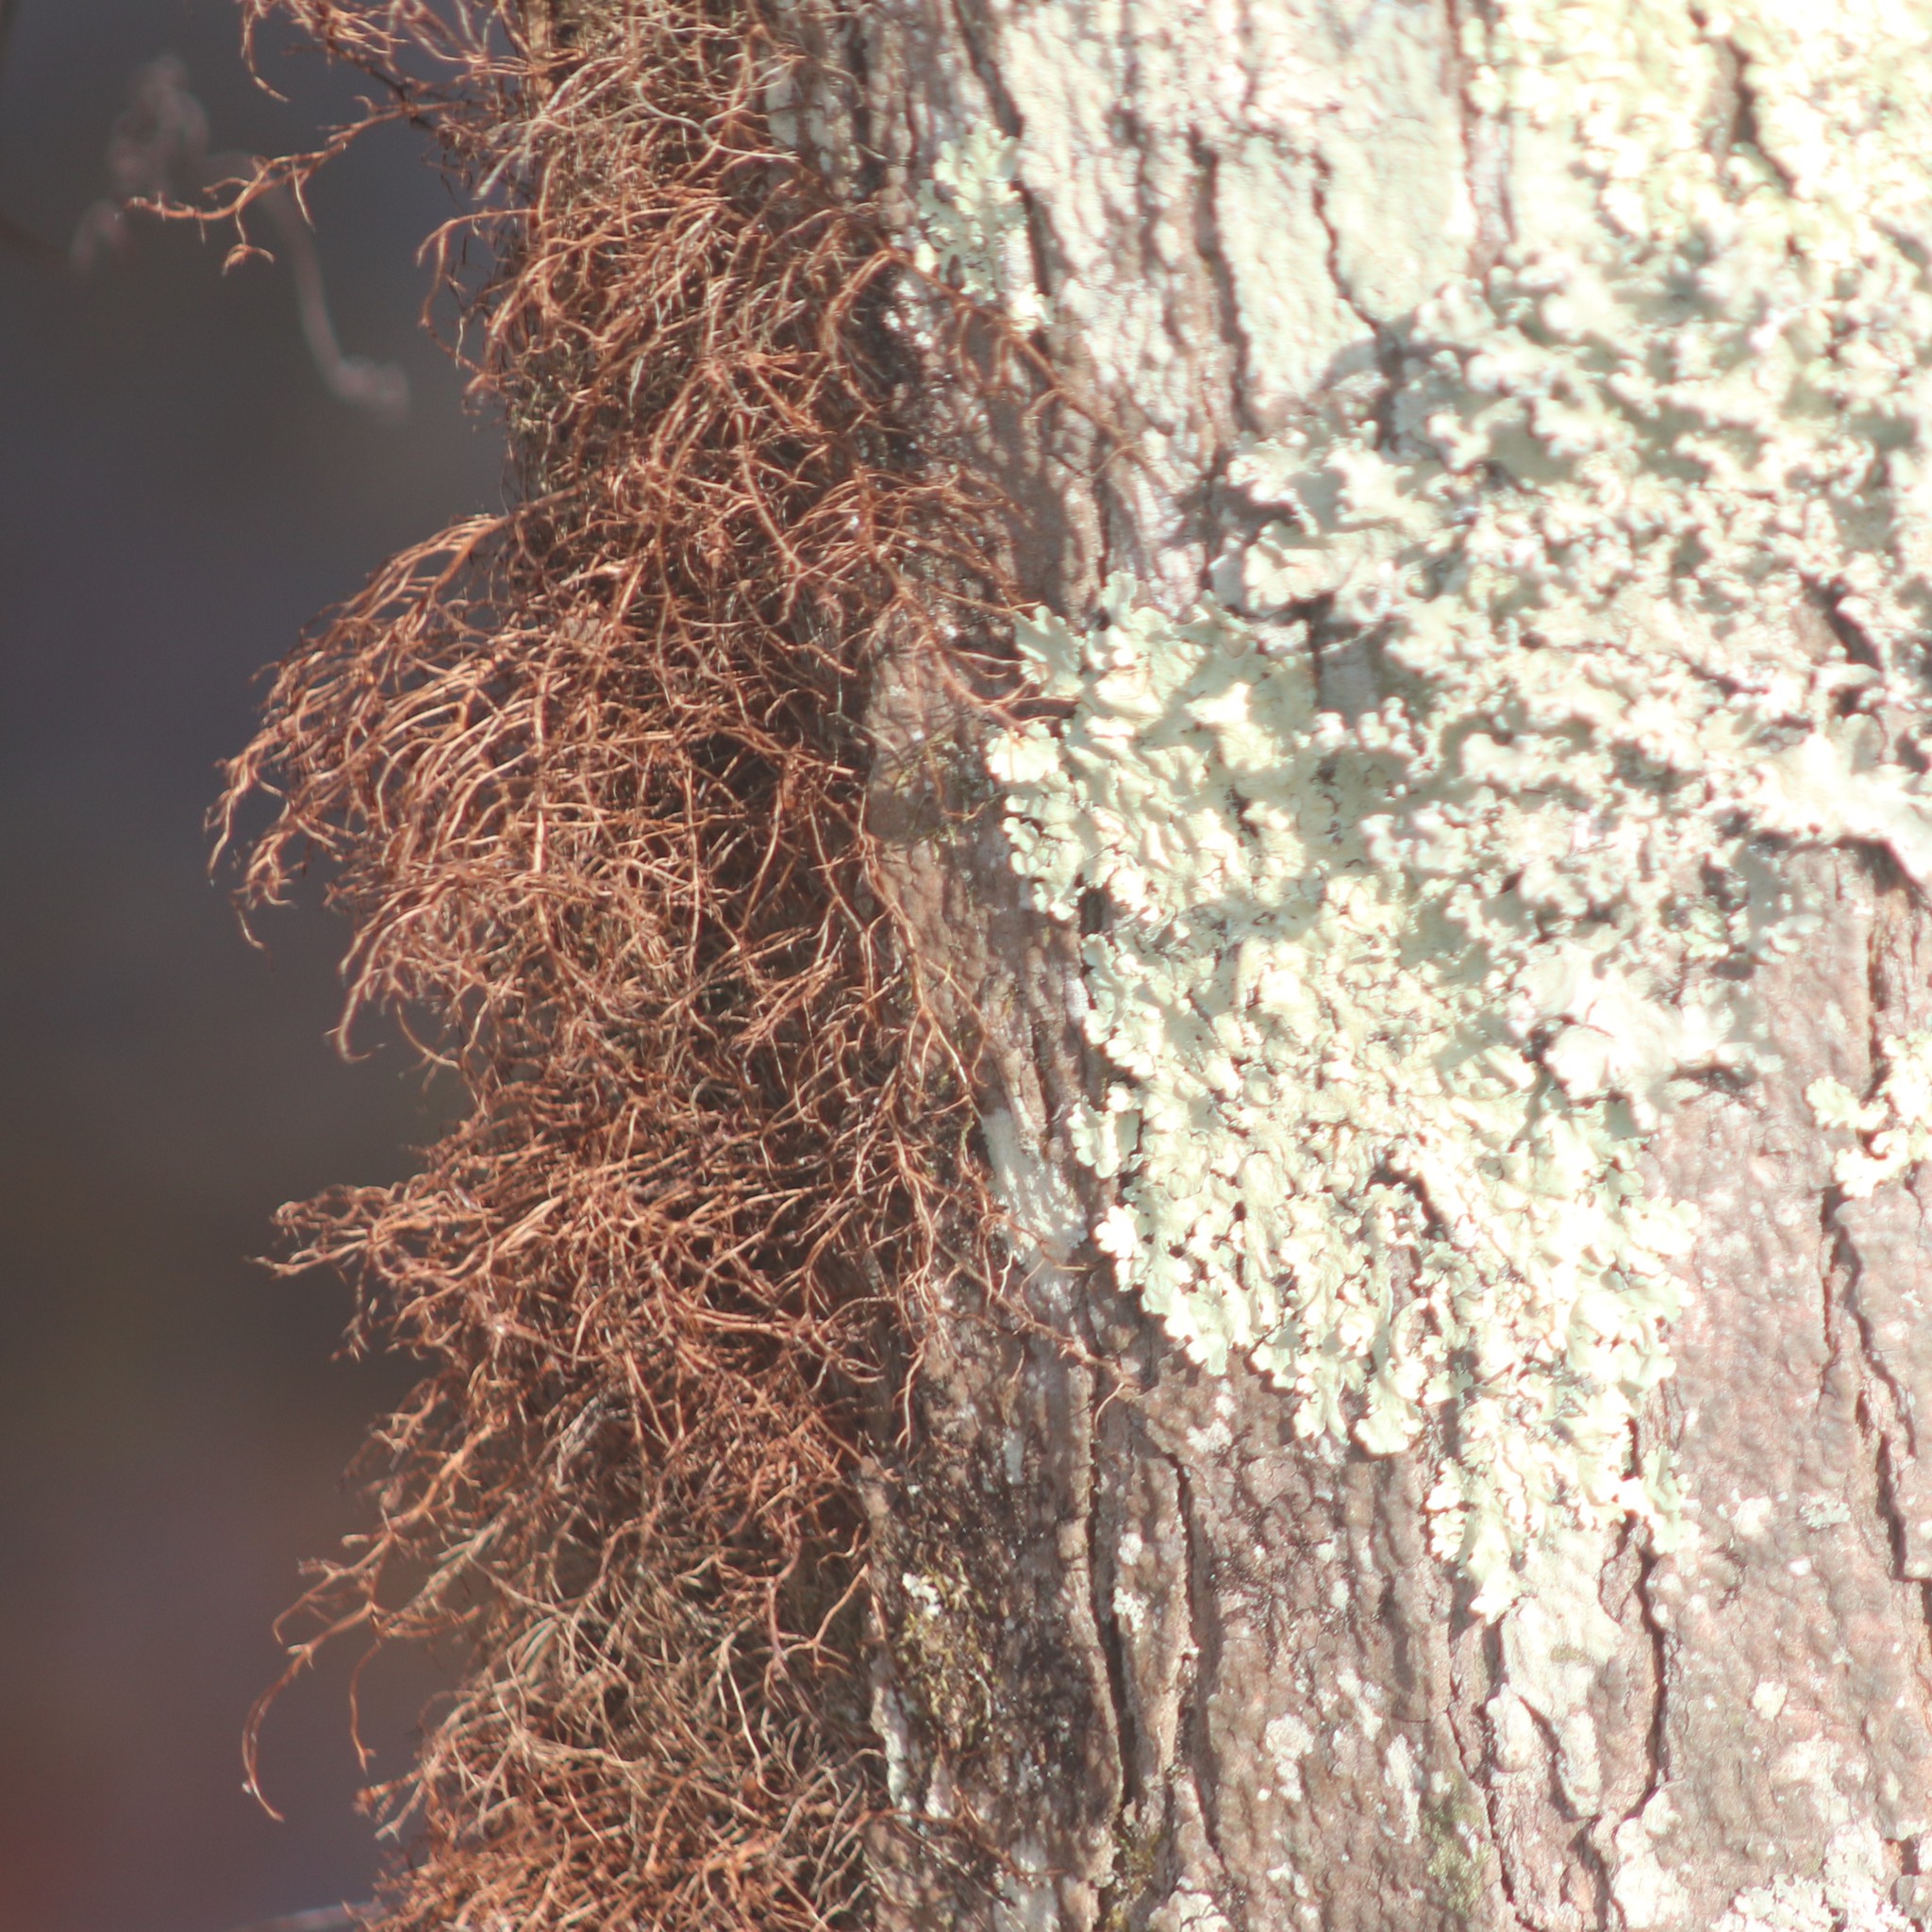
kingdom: Plantae
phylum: Tracheophyta
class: Magnoliopsida
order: Sapindales
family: Anacardiaceae
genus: Toxicodendron
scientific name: Toxicodendron radicans
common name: Poison ivy
